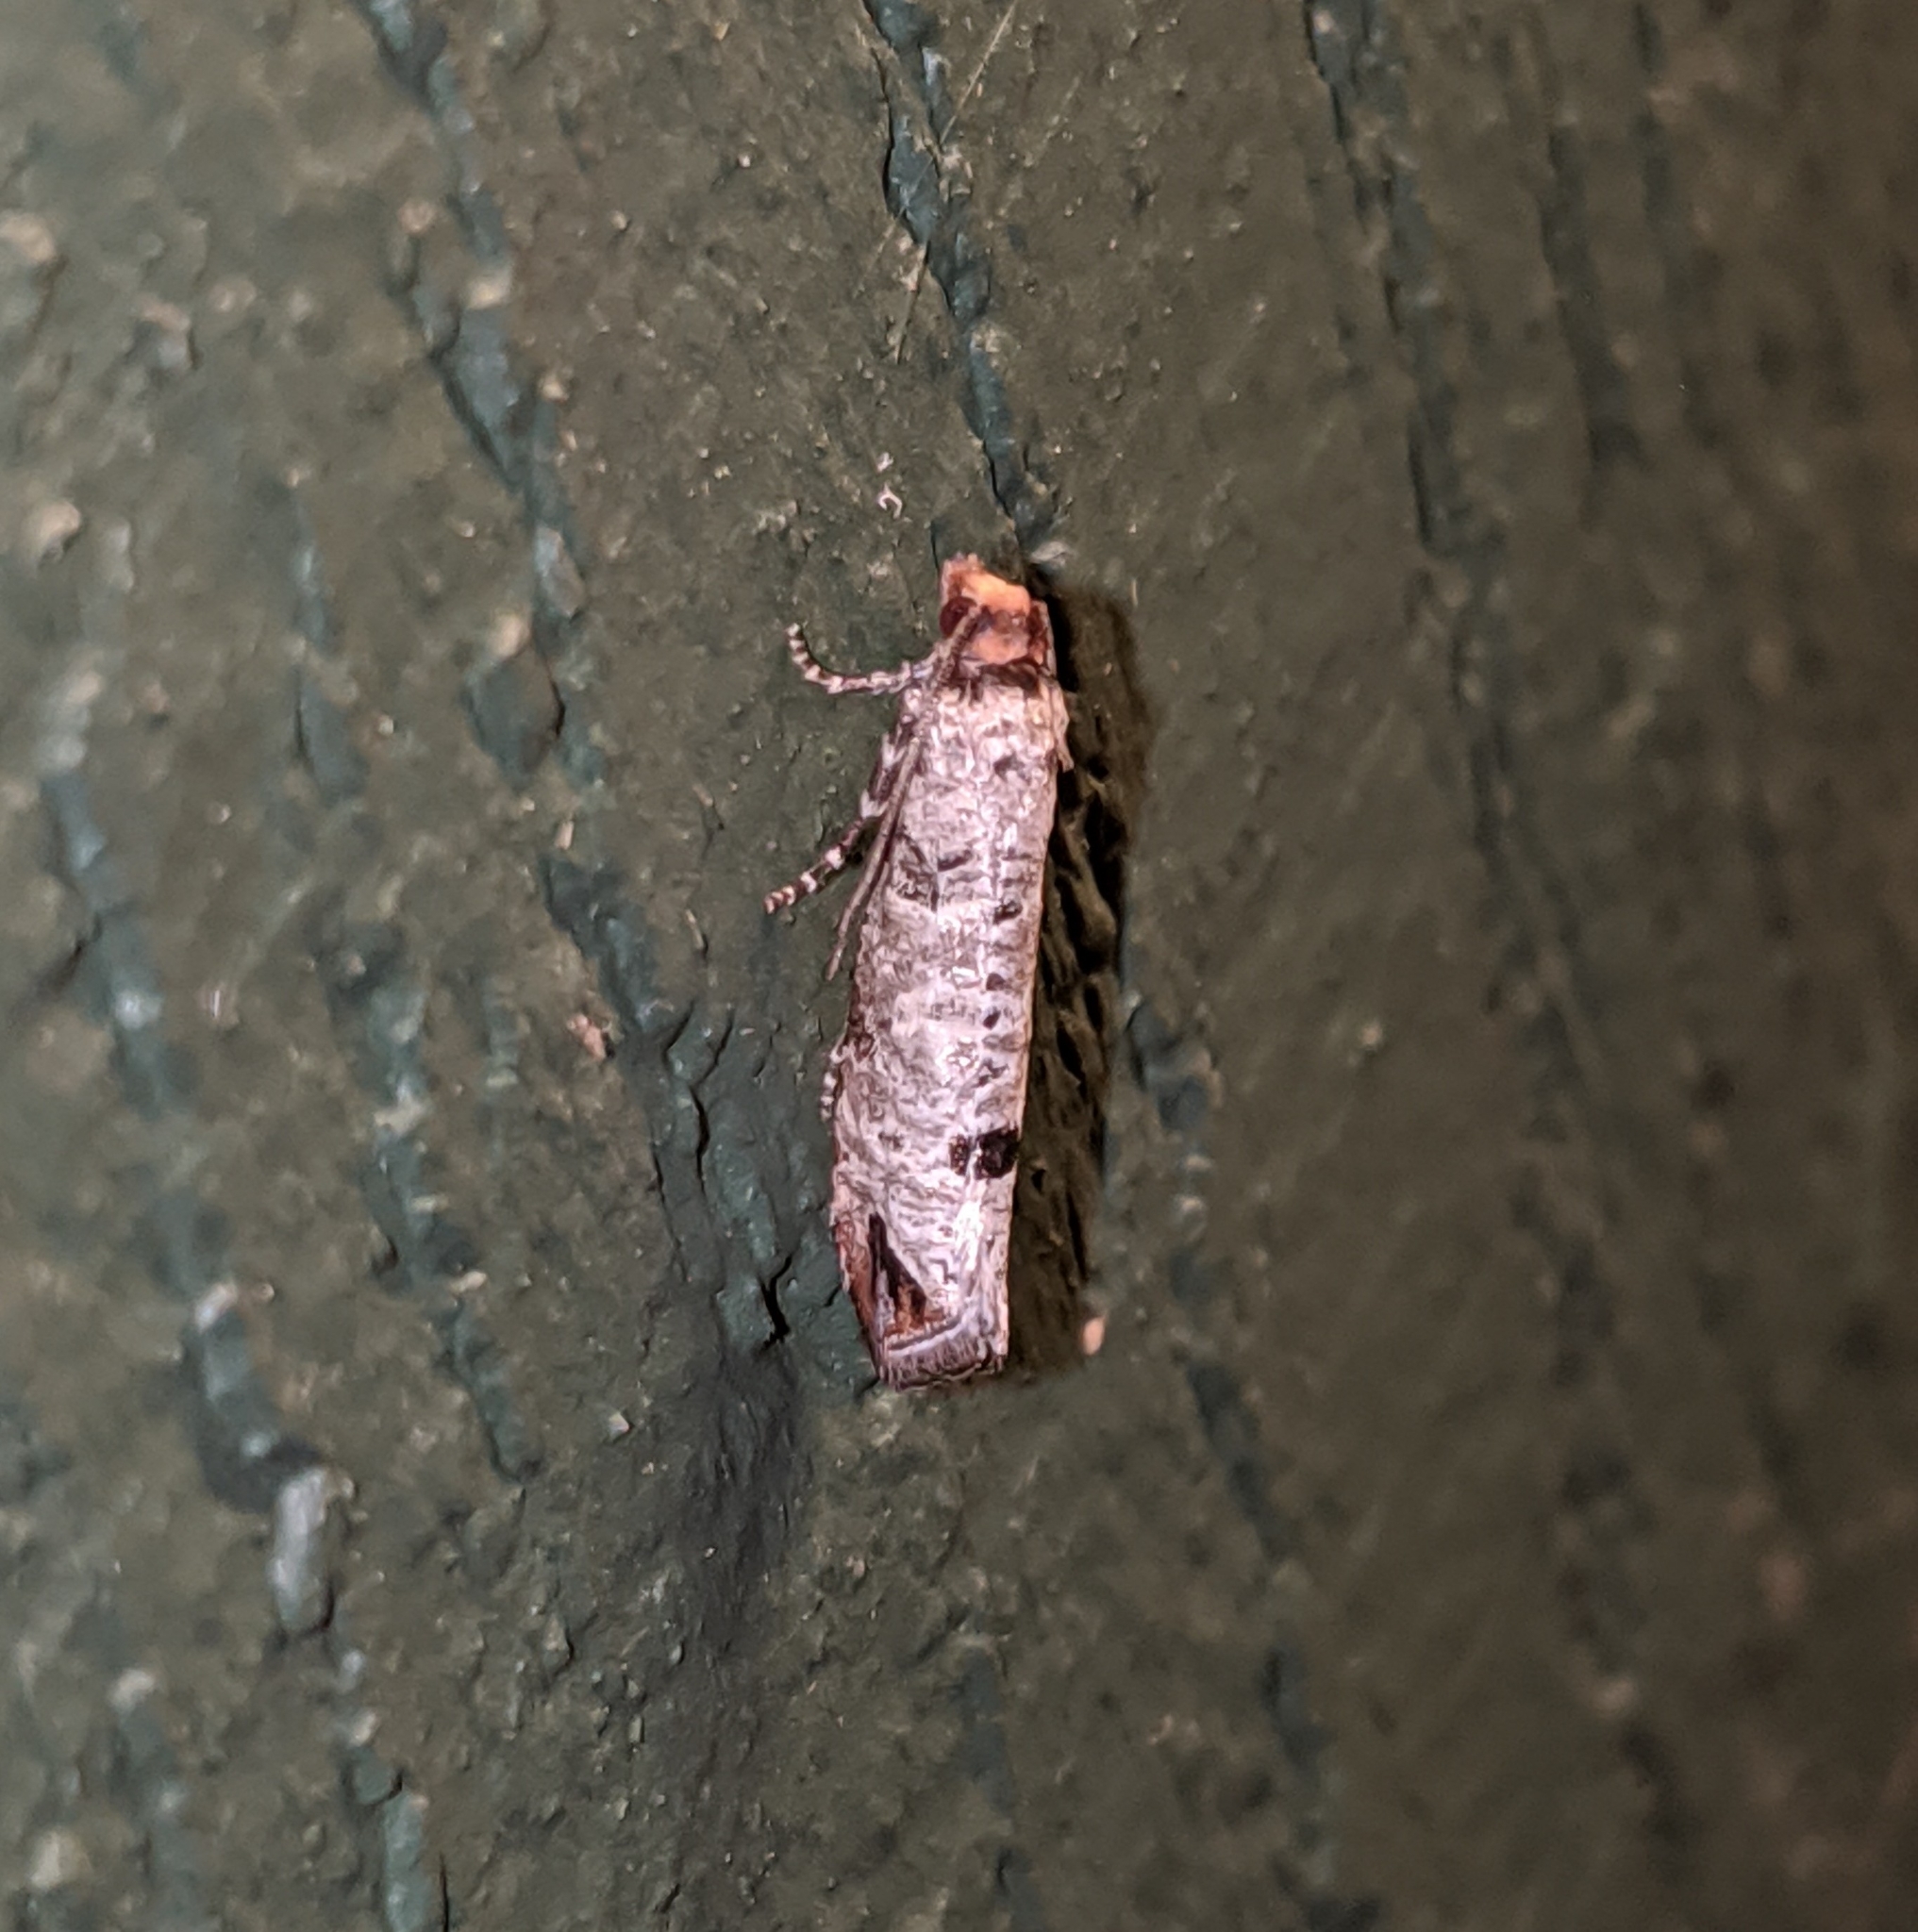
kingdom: Animalia
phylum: Arthropoda
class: Insecta
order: Lepidoptera
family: Tortricidae
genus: Retinia
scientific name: Retinia picicolana
